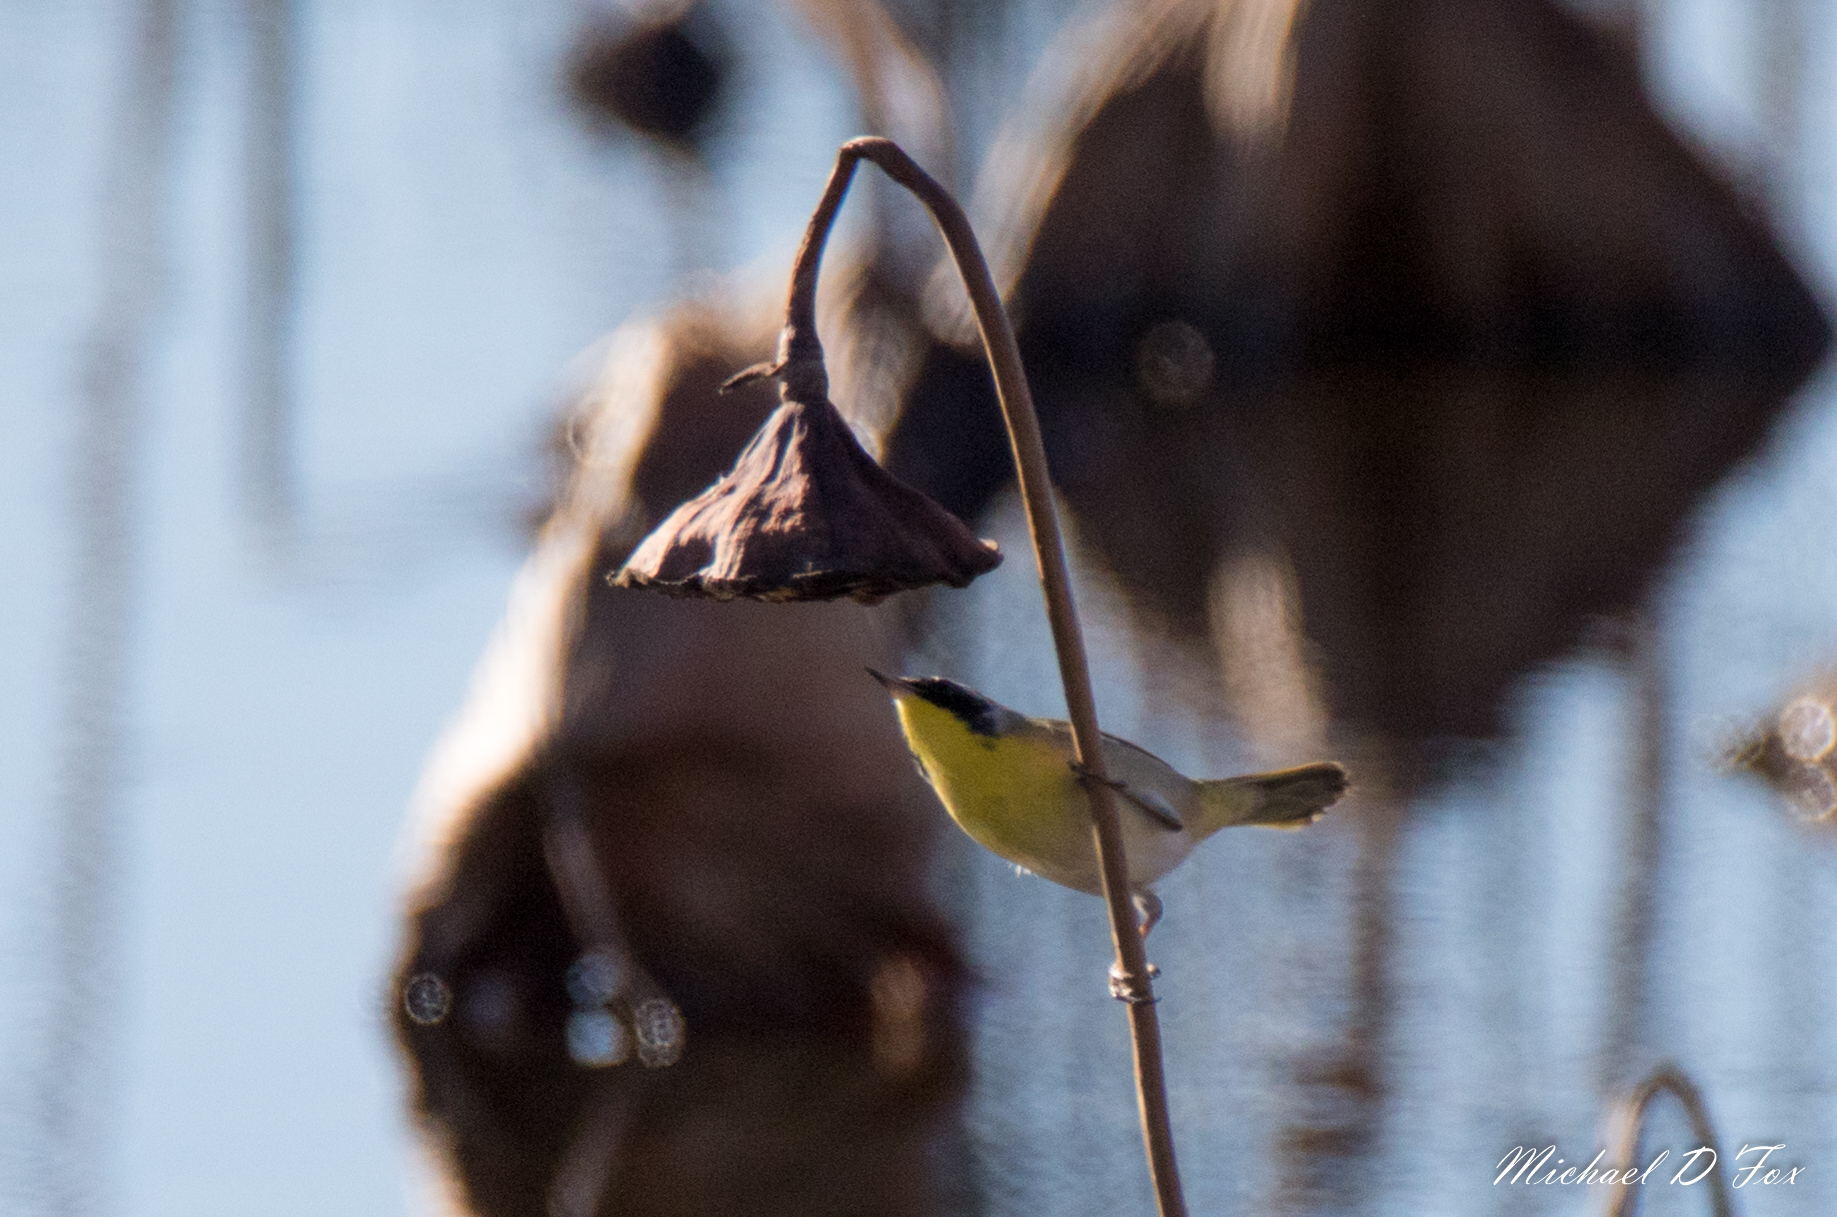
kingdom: Animalia
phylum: Chordata
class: Aves
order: Passeriformes
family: Parulidae
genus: Geothlypis
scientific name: Geothlypis trichas
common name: Common yellowthroat
